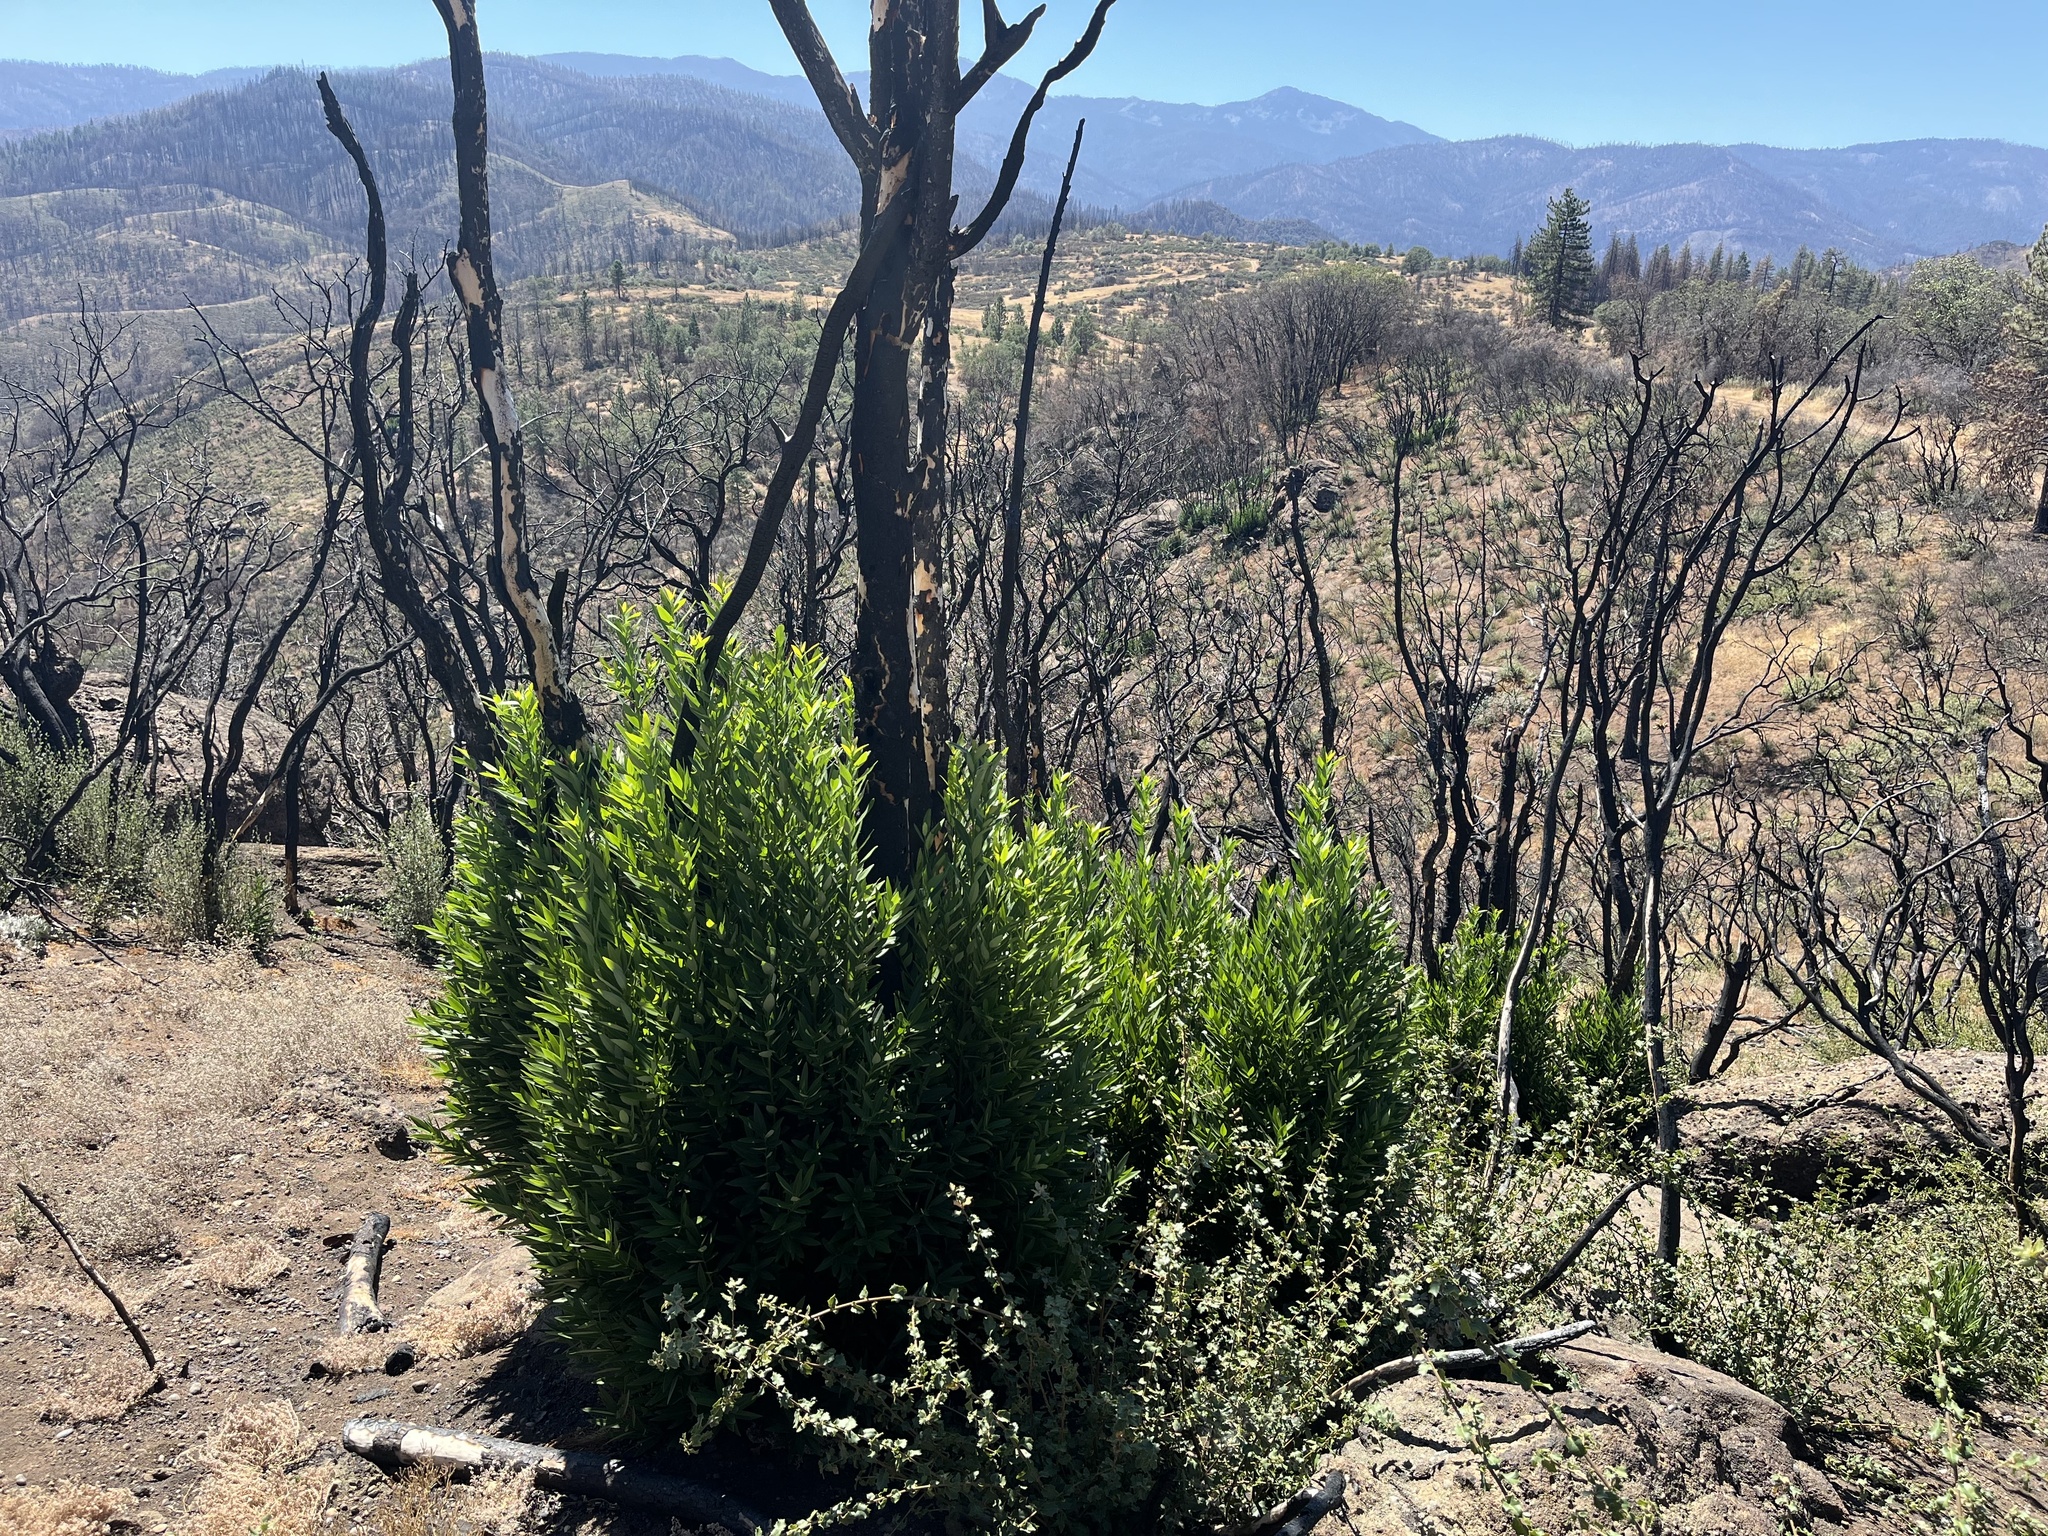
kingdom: Plantae
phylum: Tracheophyta
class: Magnoliopsida
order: Laurales
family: Lauraceae
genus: Umbellularia
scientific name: Umbellularia californica
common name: California bay
